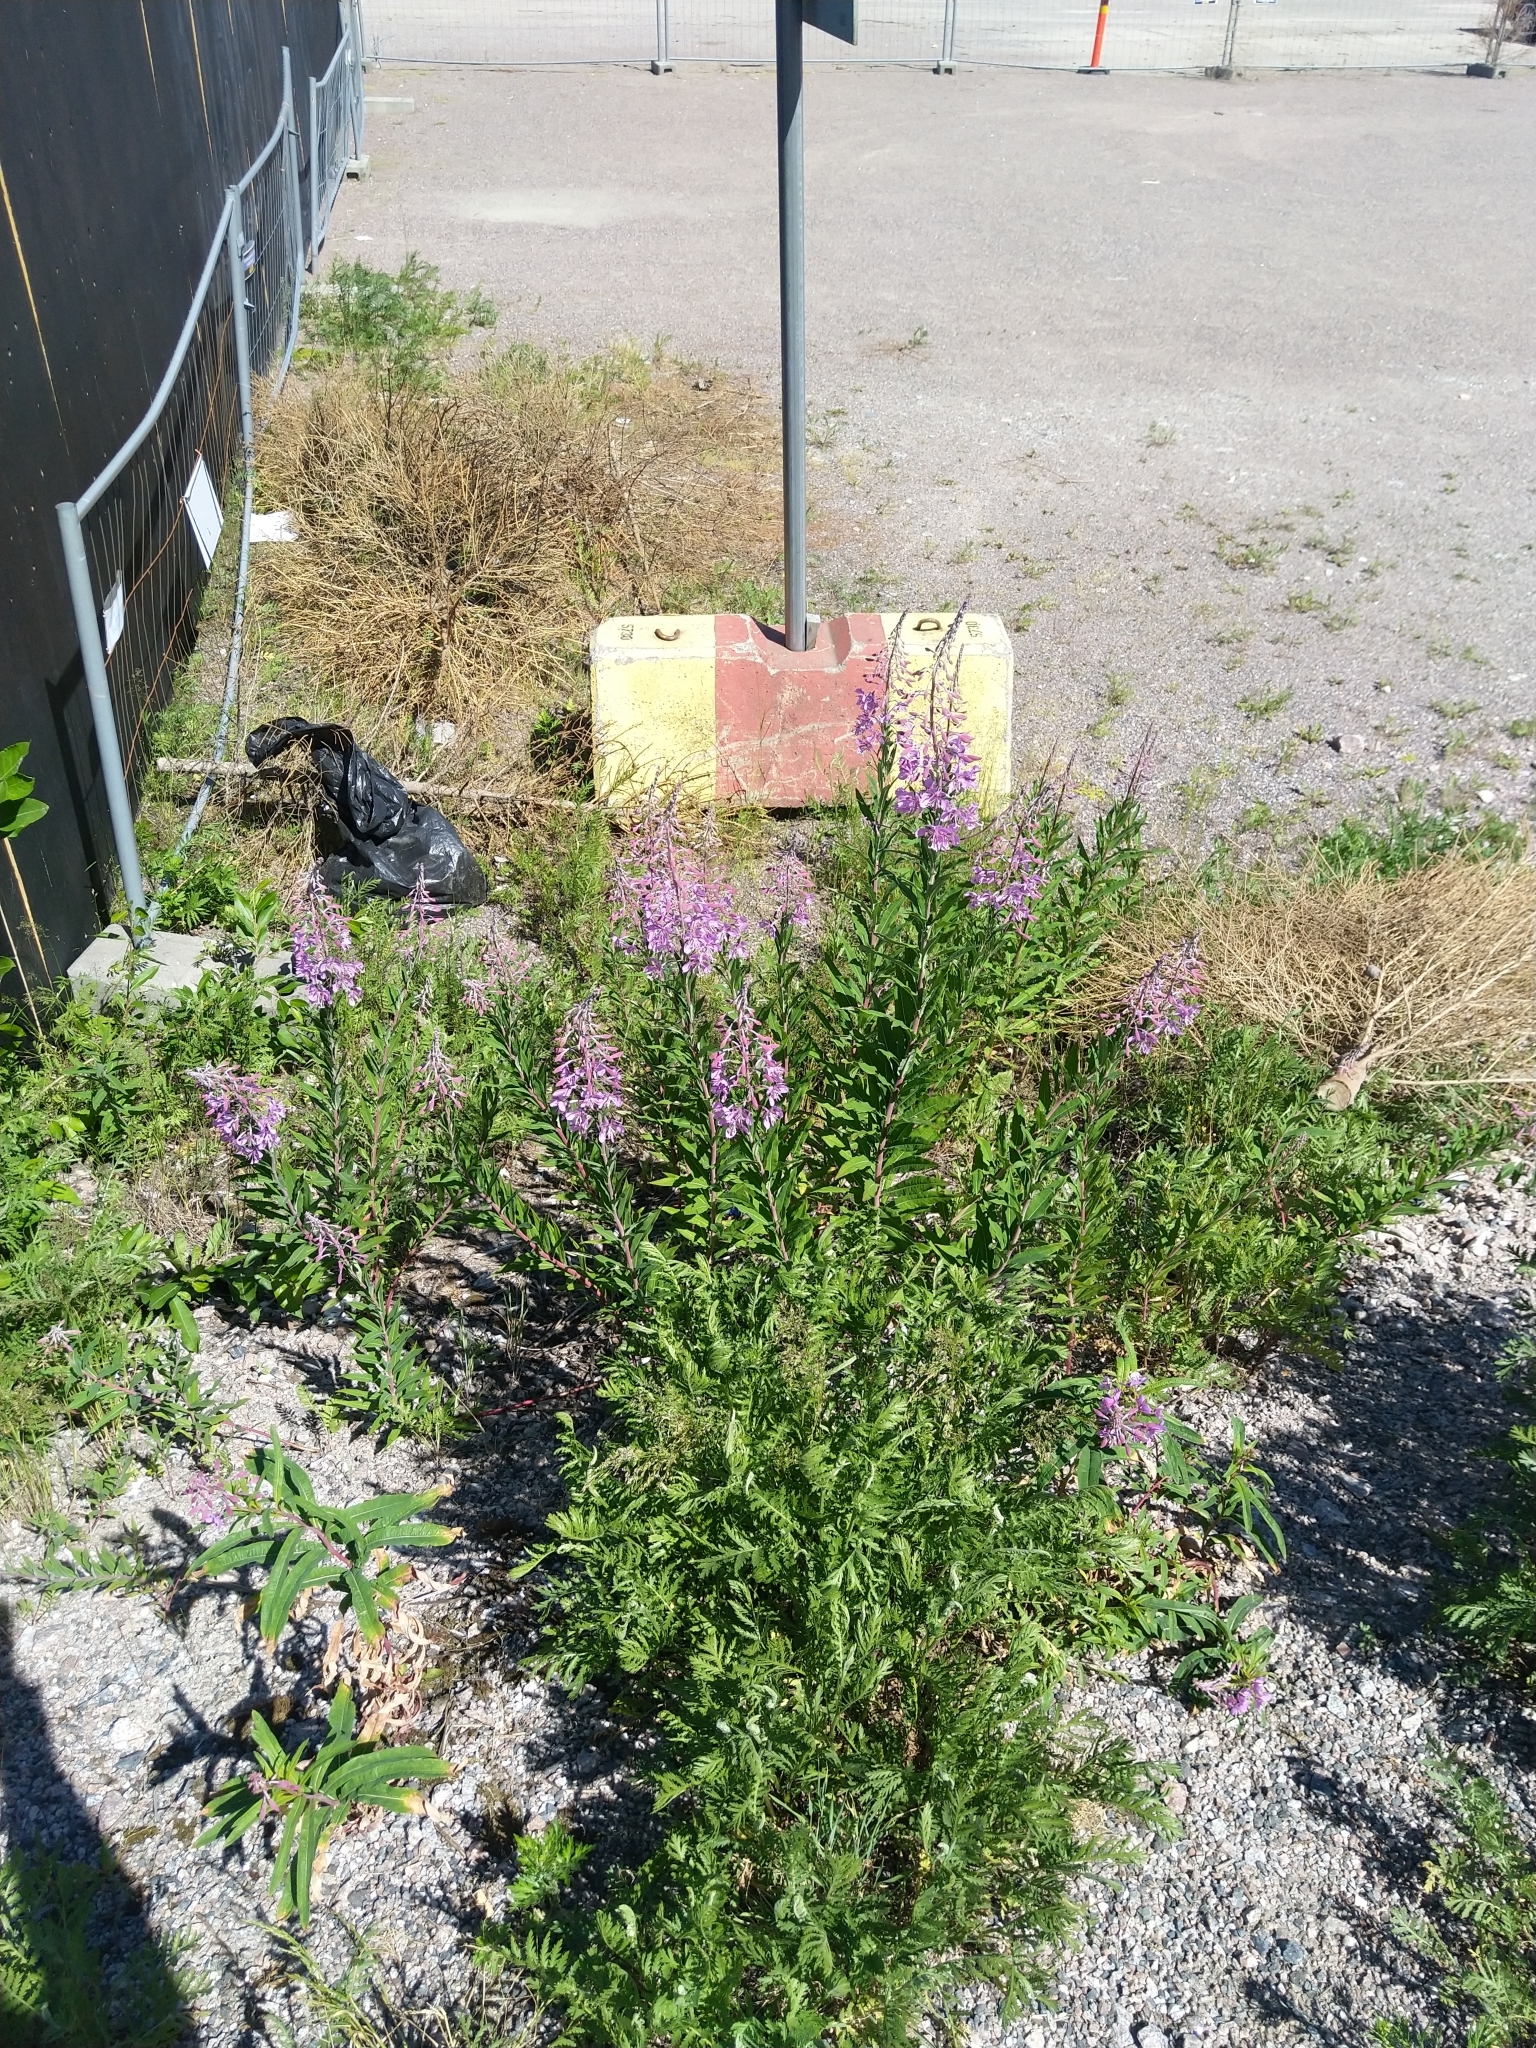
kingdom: Plantae
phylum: Tracheophyta
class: Magnoliopsida
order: Myrtales
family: Onagraceae
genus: Chamaenerion
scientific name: Chamaenerion angustifolium
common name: Fireweed
